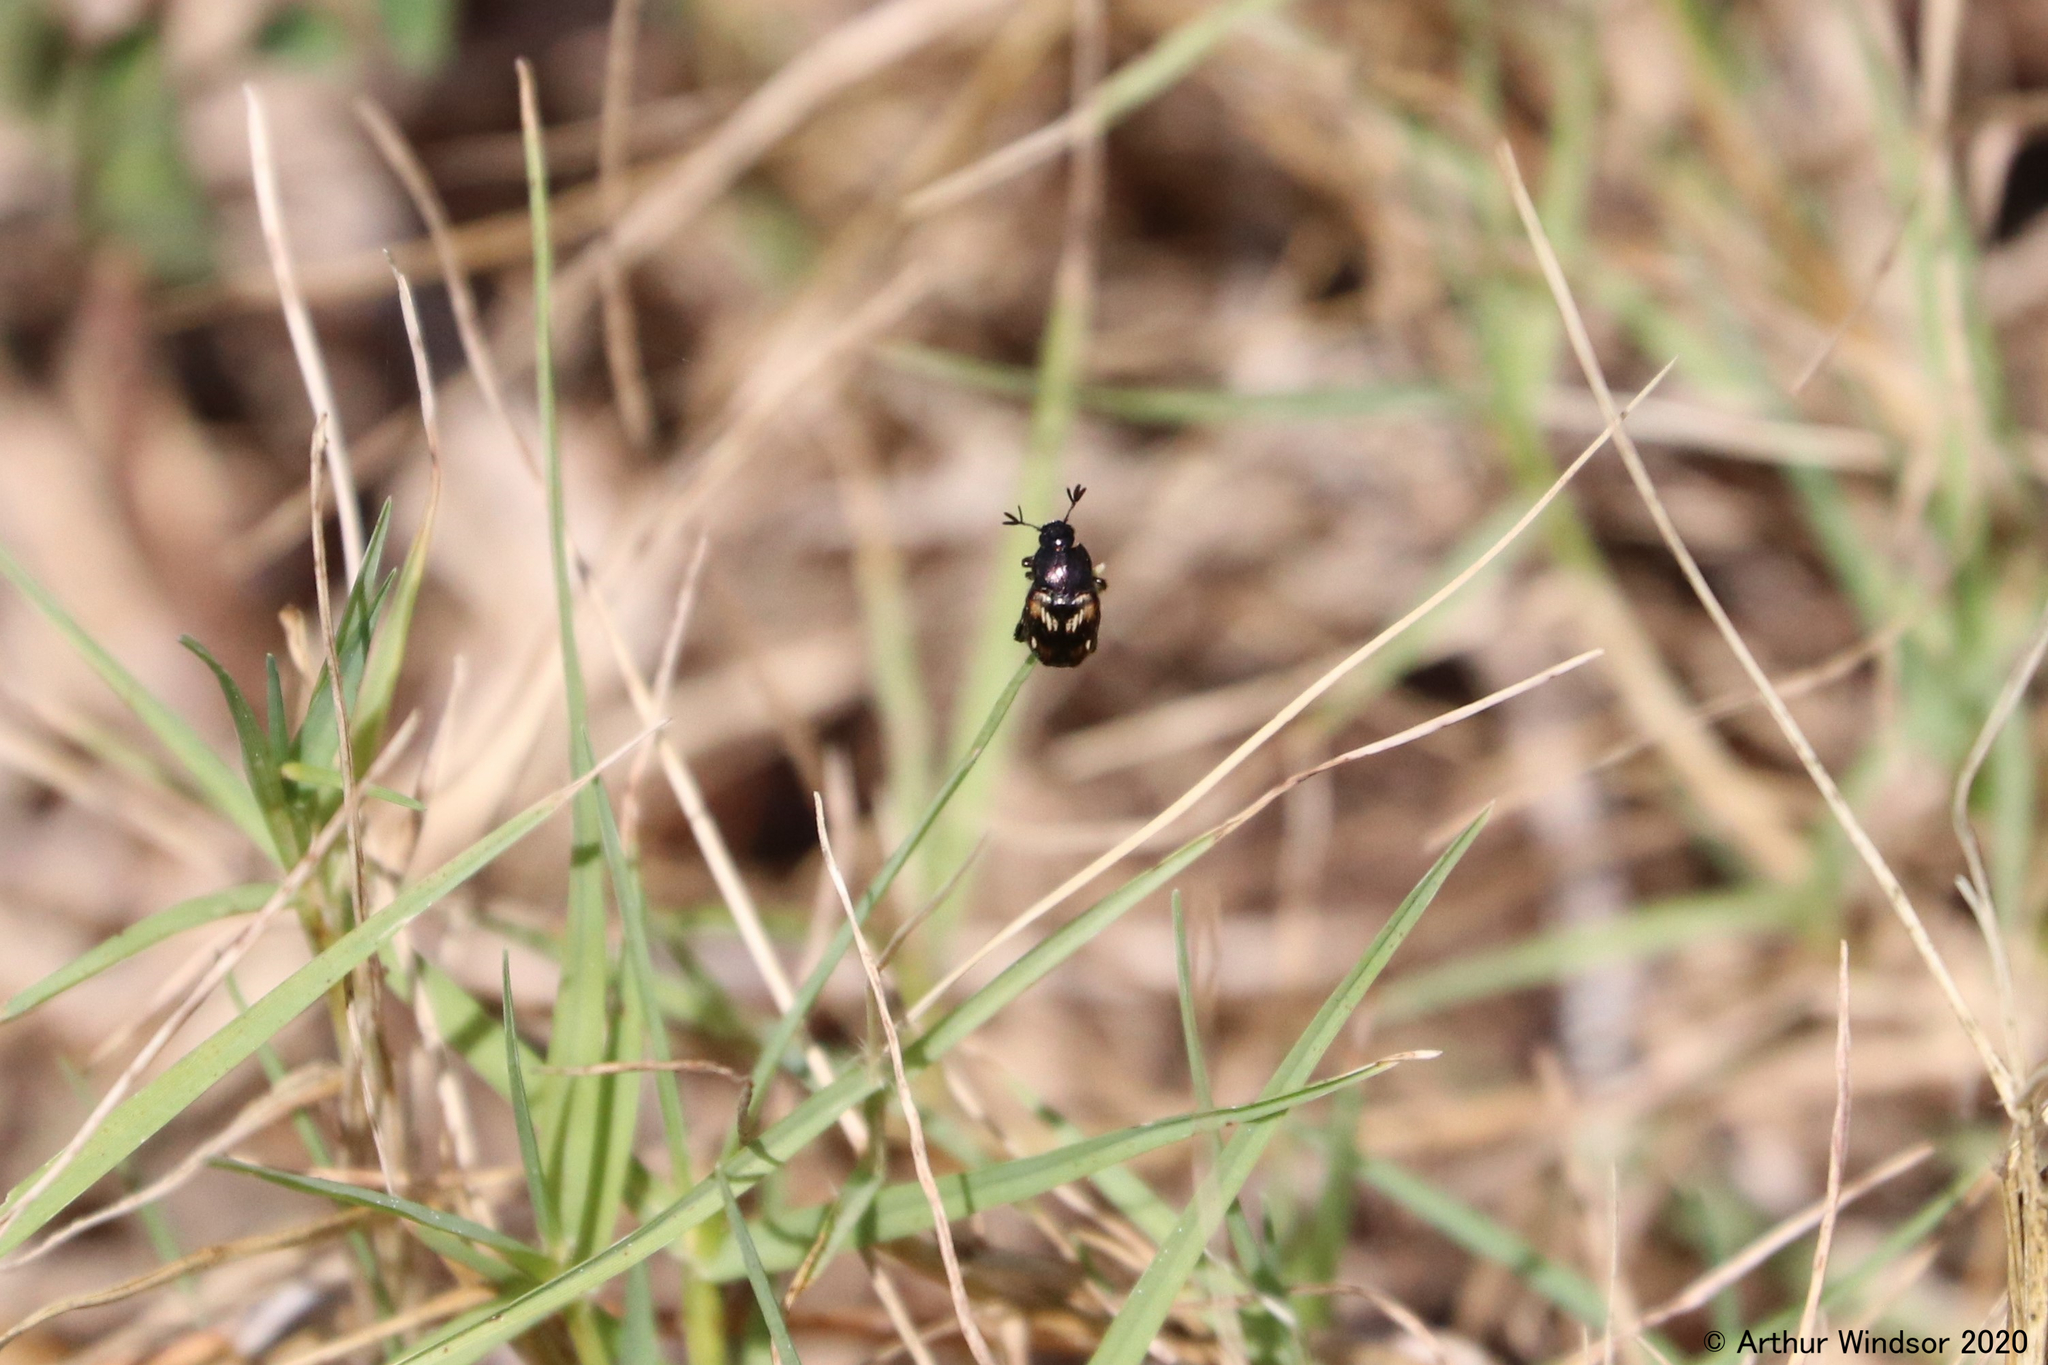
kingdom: Animalia
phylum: Arthropoda
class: Insecta
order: Coleoptera
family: Scarabaeidae
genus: Strigoderma
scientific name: Strigoderma pygmaea
